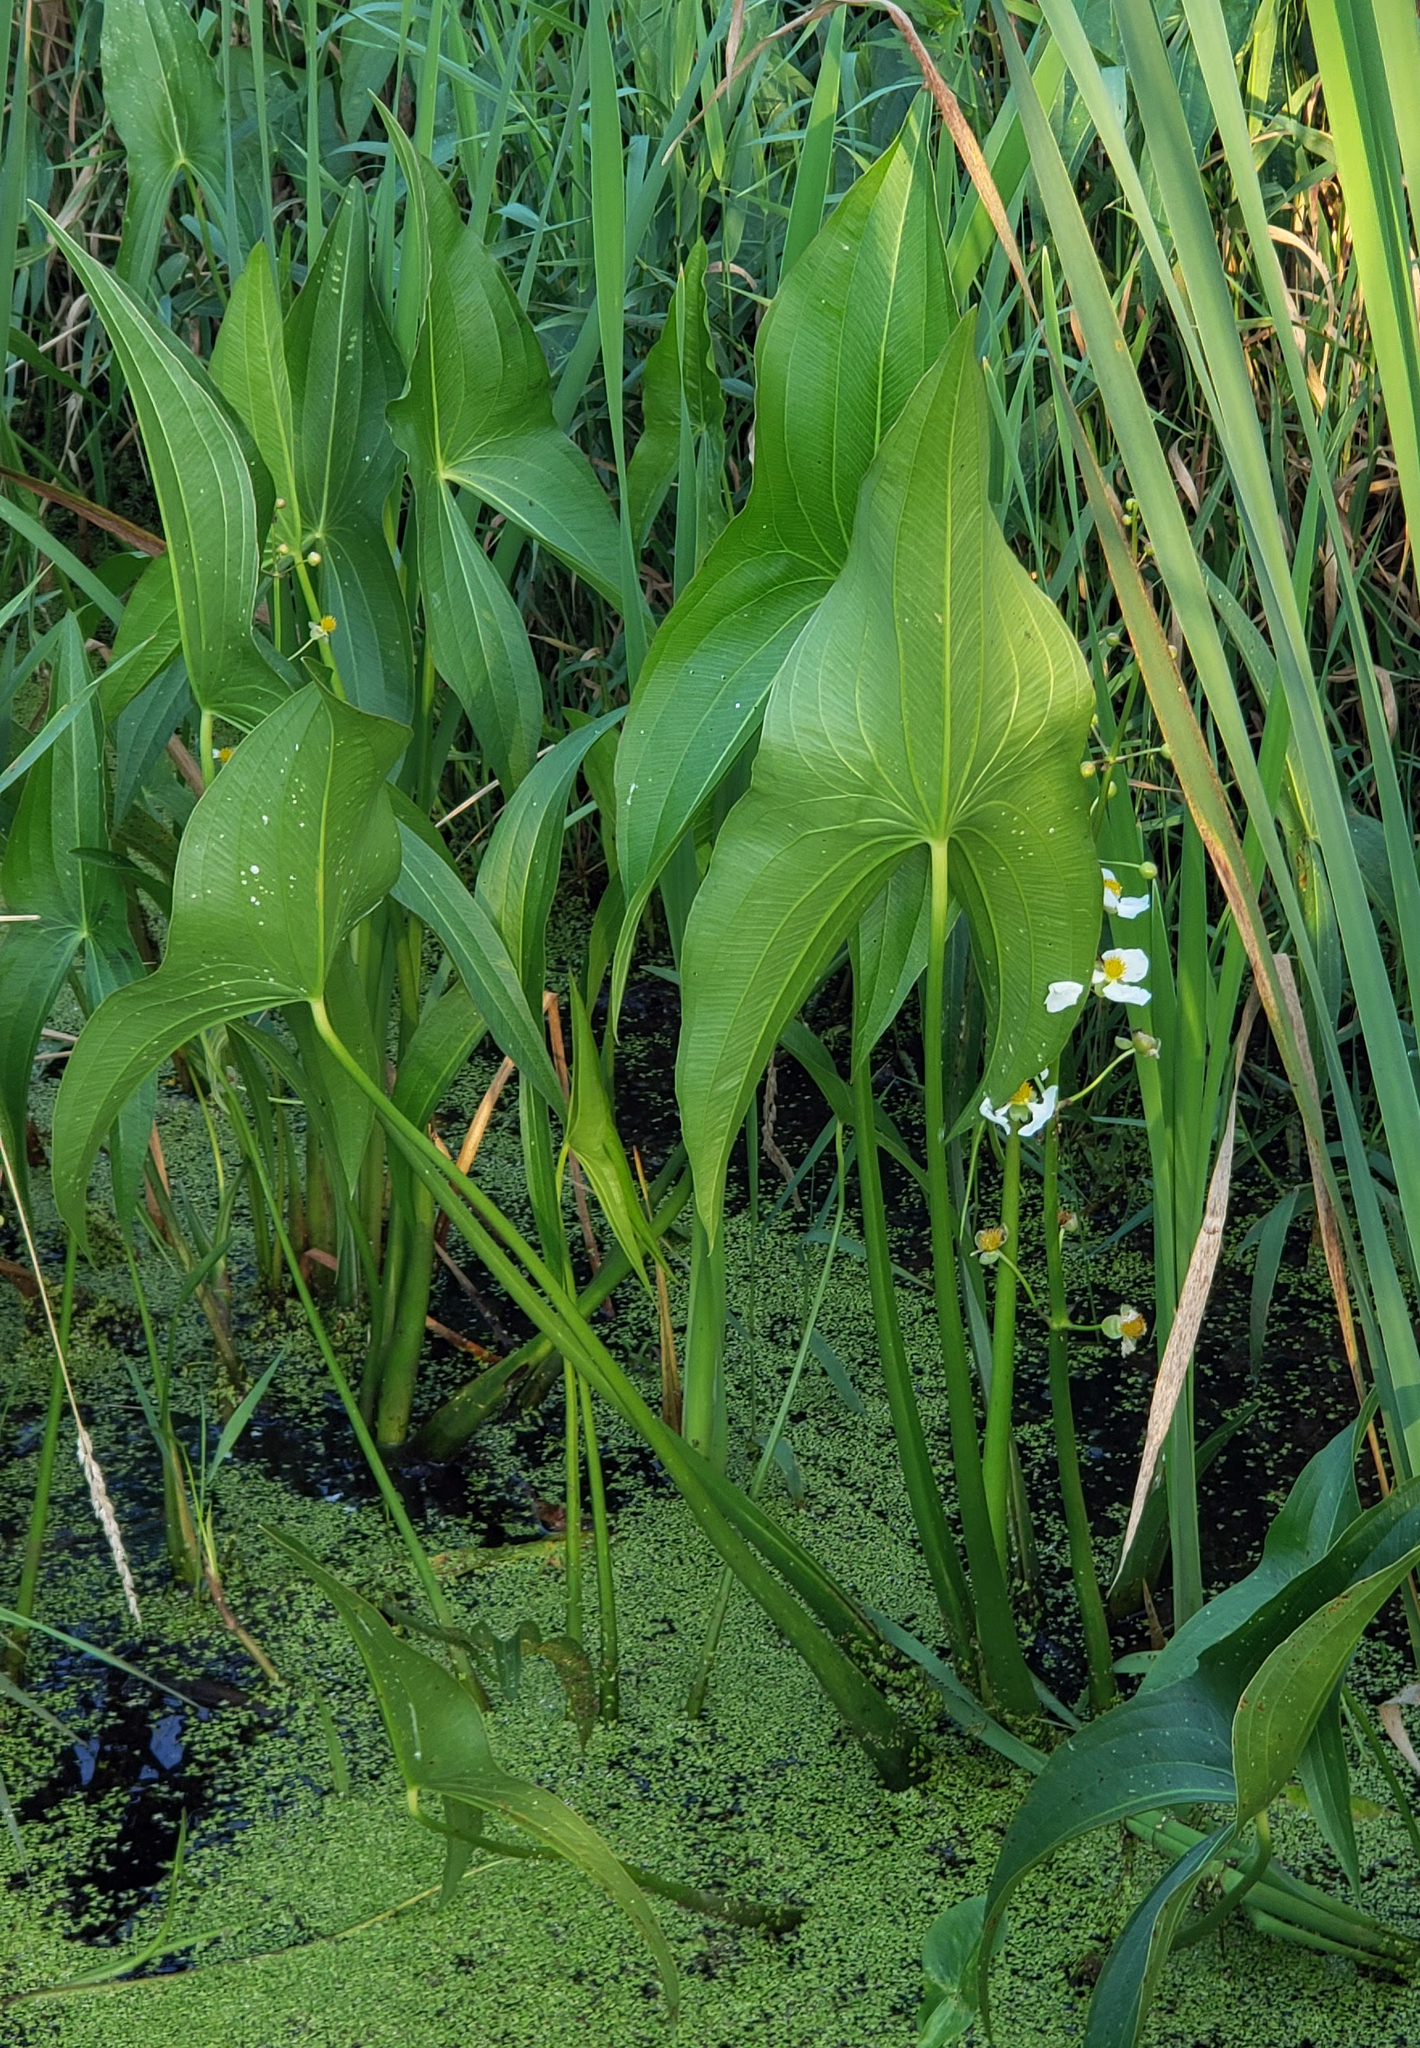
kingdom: Plantae
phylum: Tracheophyta
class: Liliopsida
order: Alismatales
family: Alismataceae
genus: Sagittaria
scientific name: Sagittaria latifolia
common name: Duck-potato
